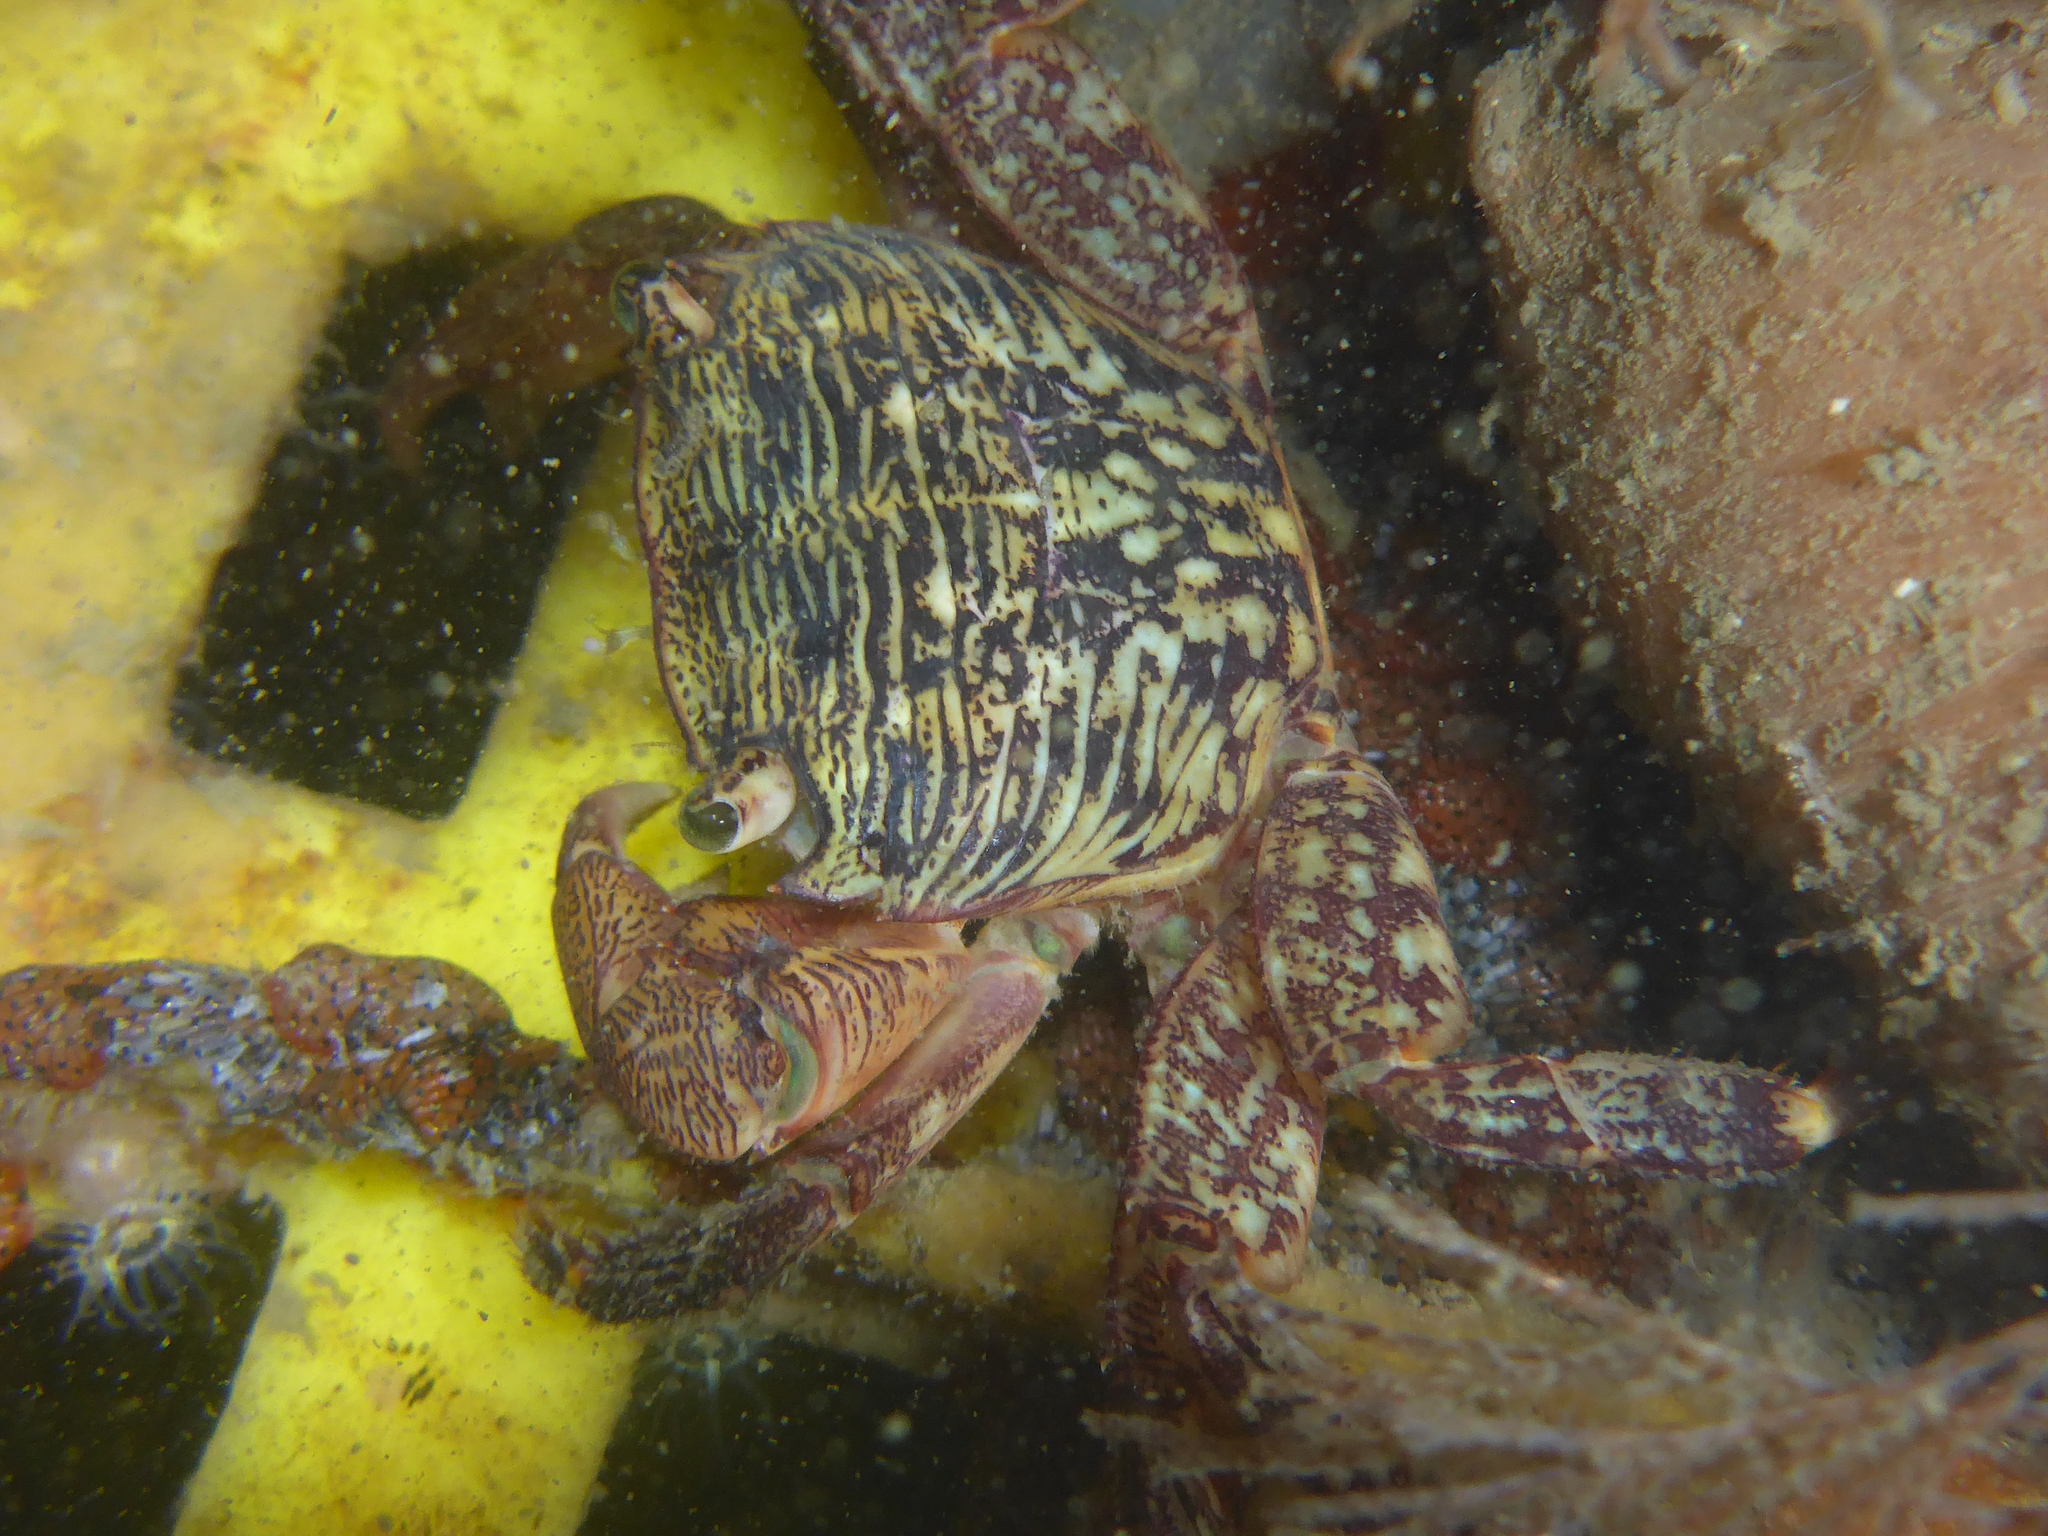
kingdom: Animalia
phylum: Arthropoda
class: Malacostraca
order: Decapoda
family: Grapsidae
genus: Pachygrapsus
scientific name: Pachygrapsus crassipes
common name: Striped shore crab
